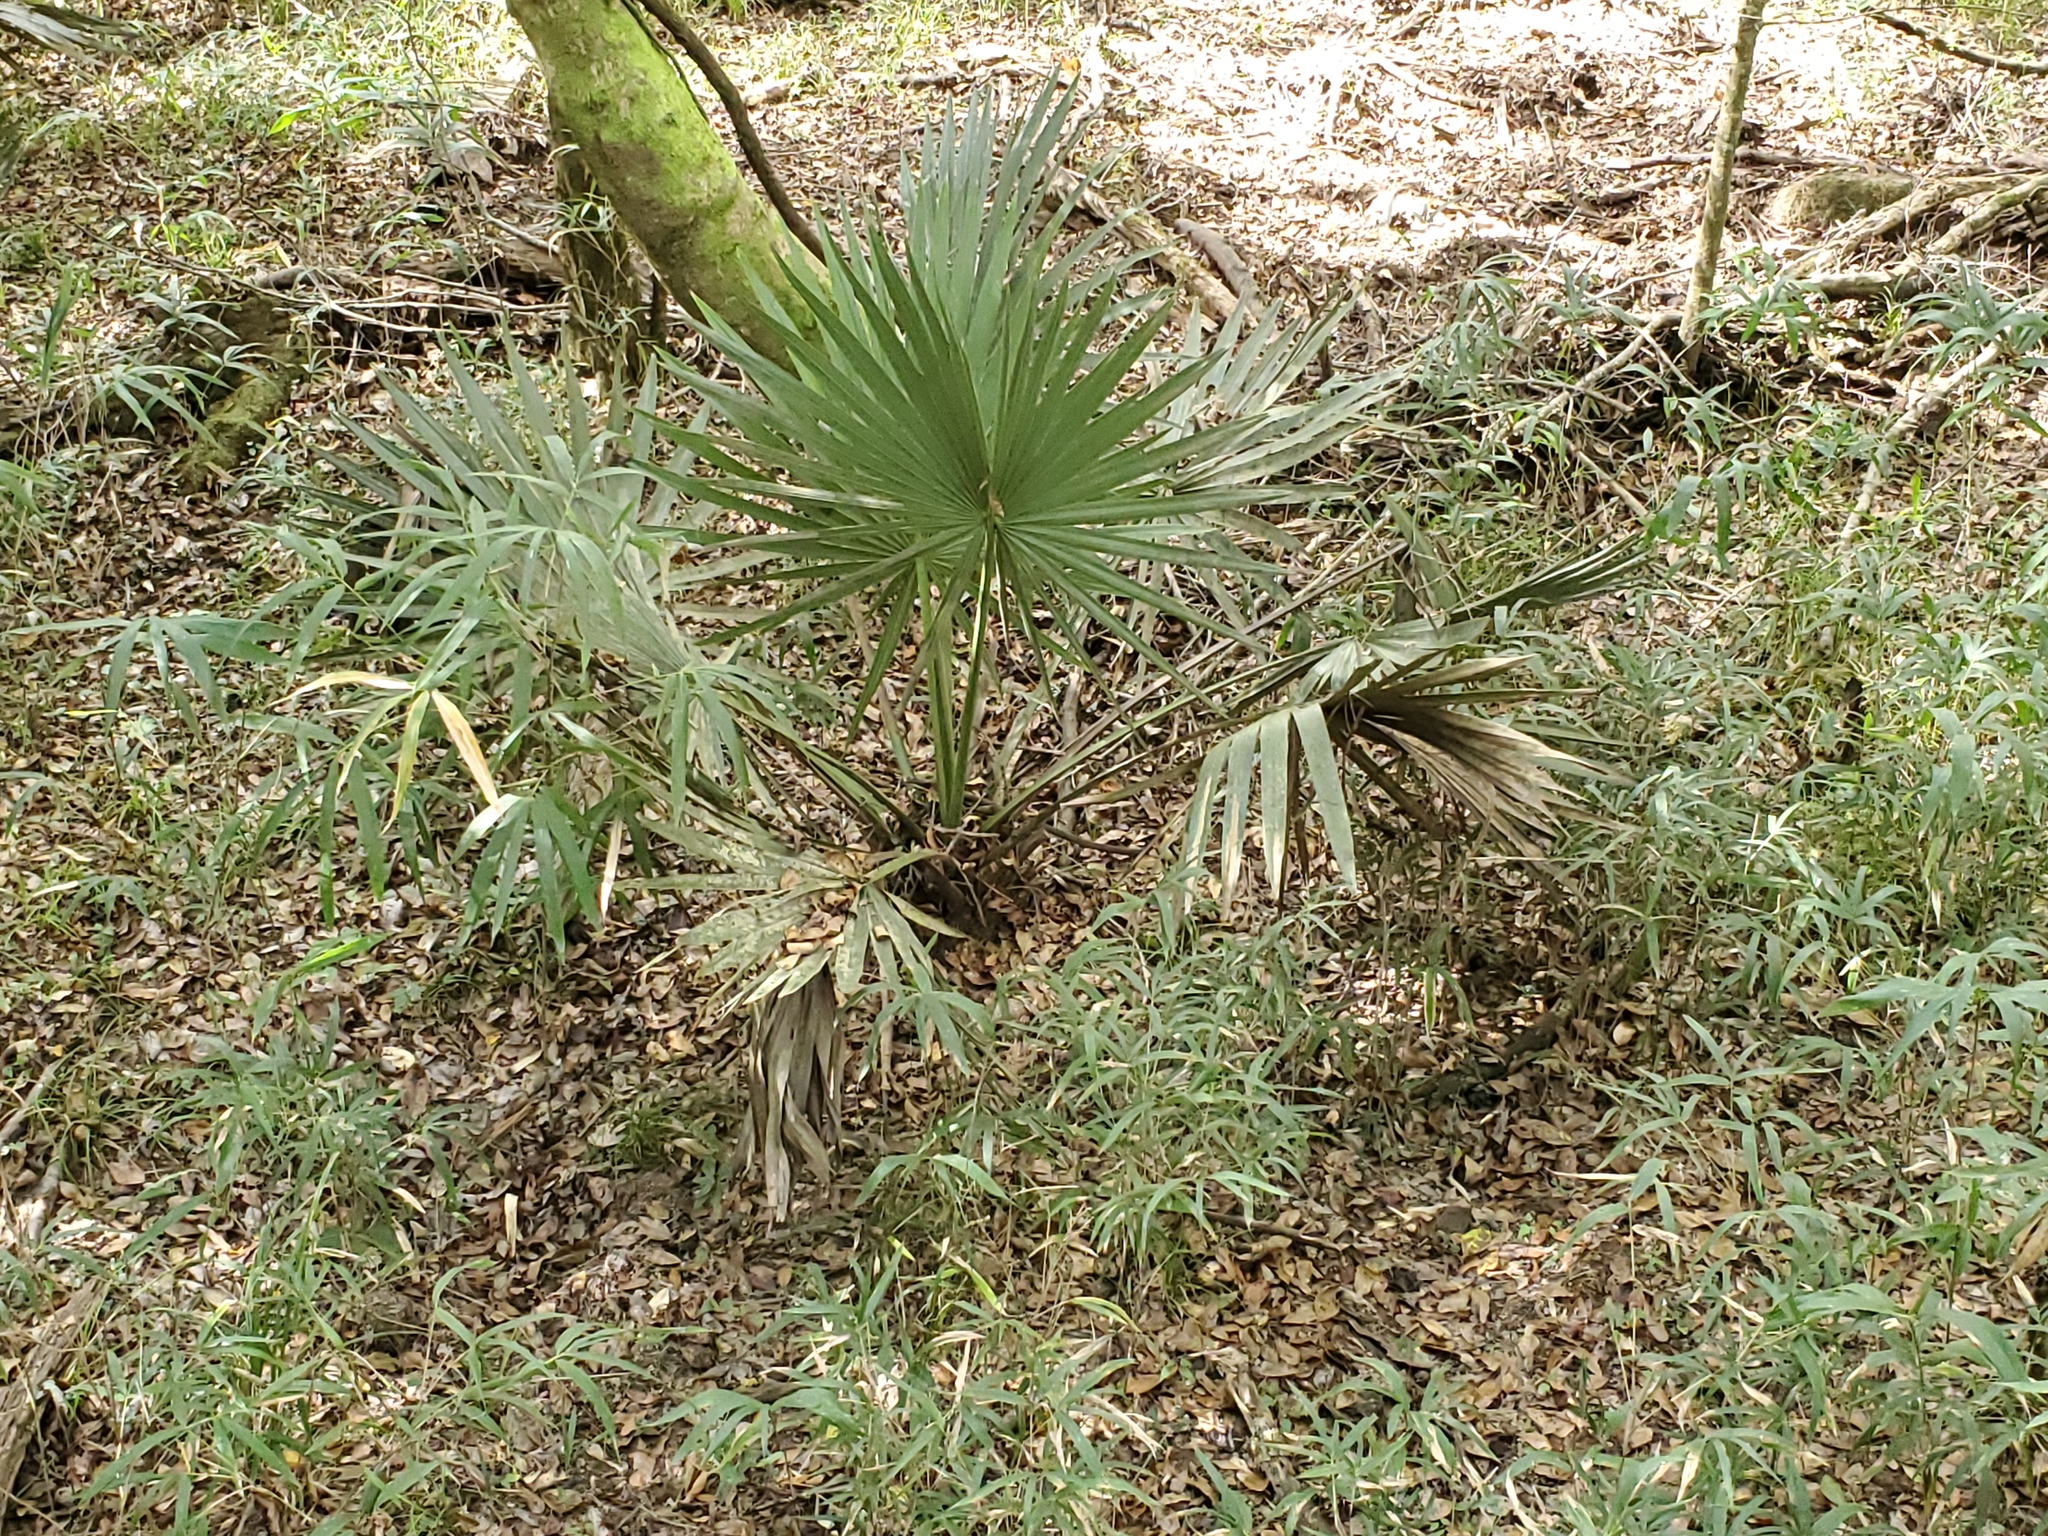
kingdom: Plantae
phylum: Tracheophyta
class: Liliopsida
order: Arecales
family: Arecaceae
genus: Sabal
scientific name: Sabal minor
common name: Dwarf palmetto
